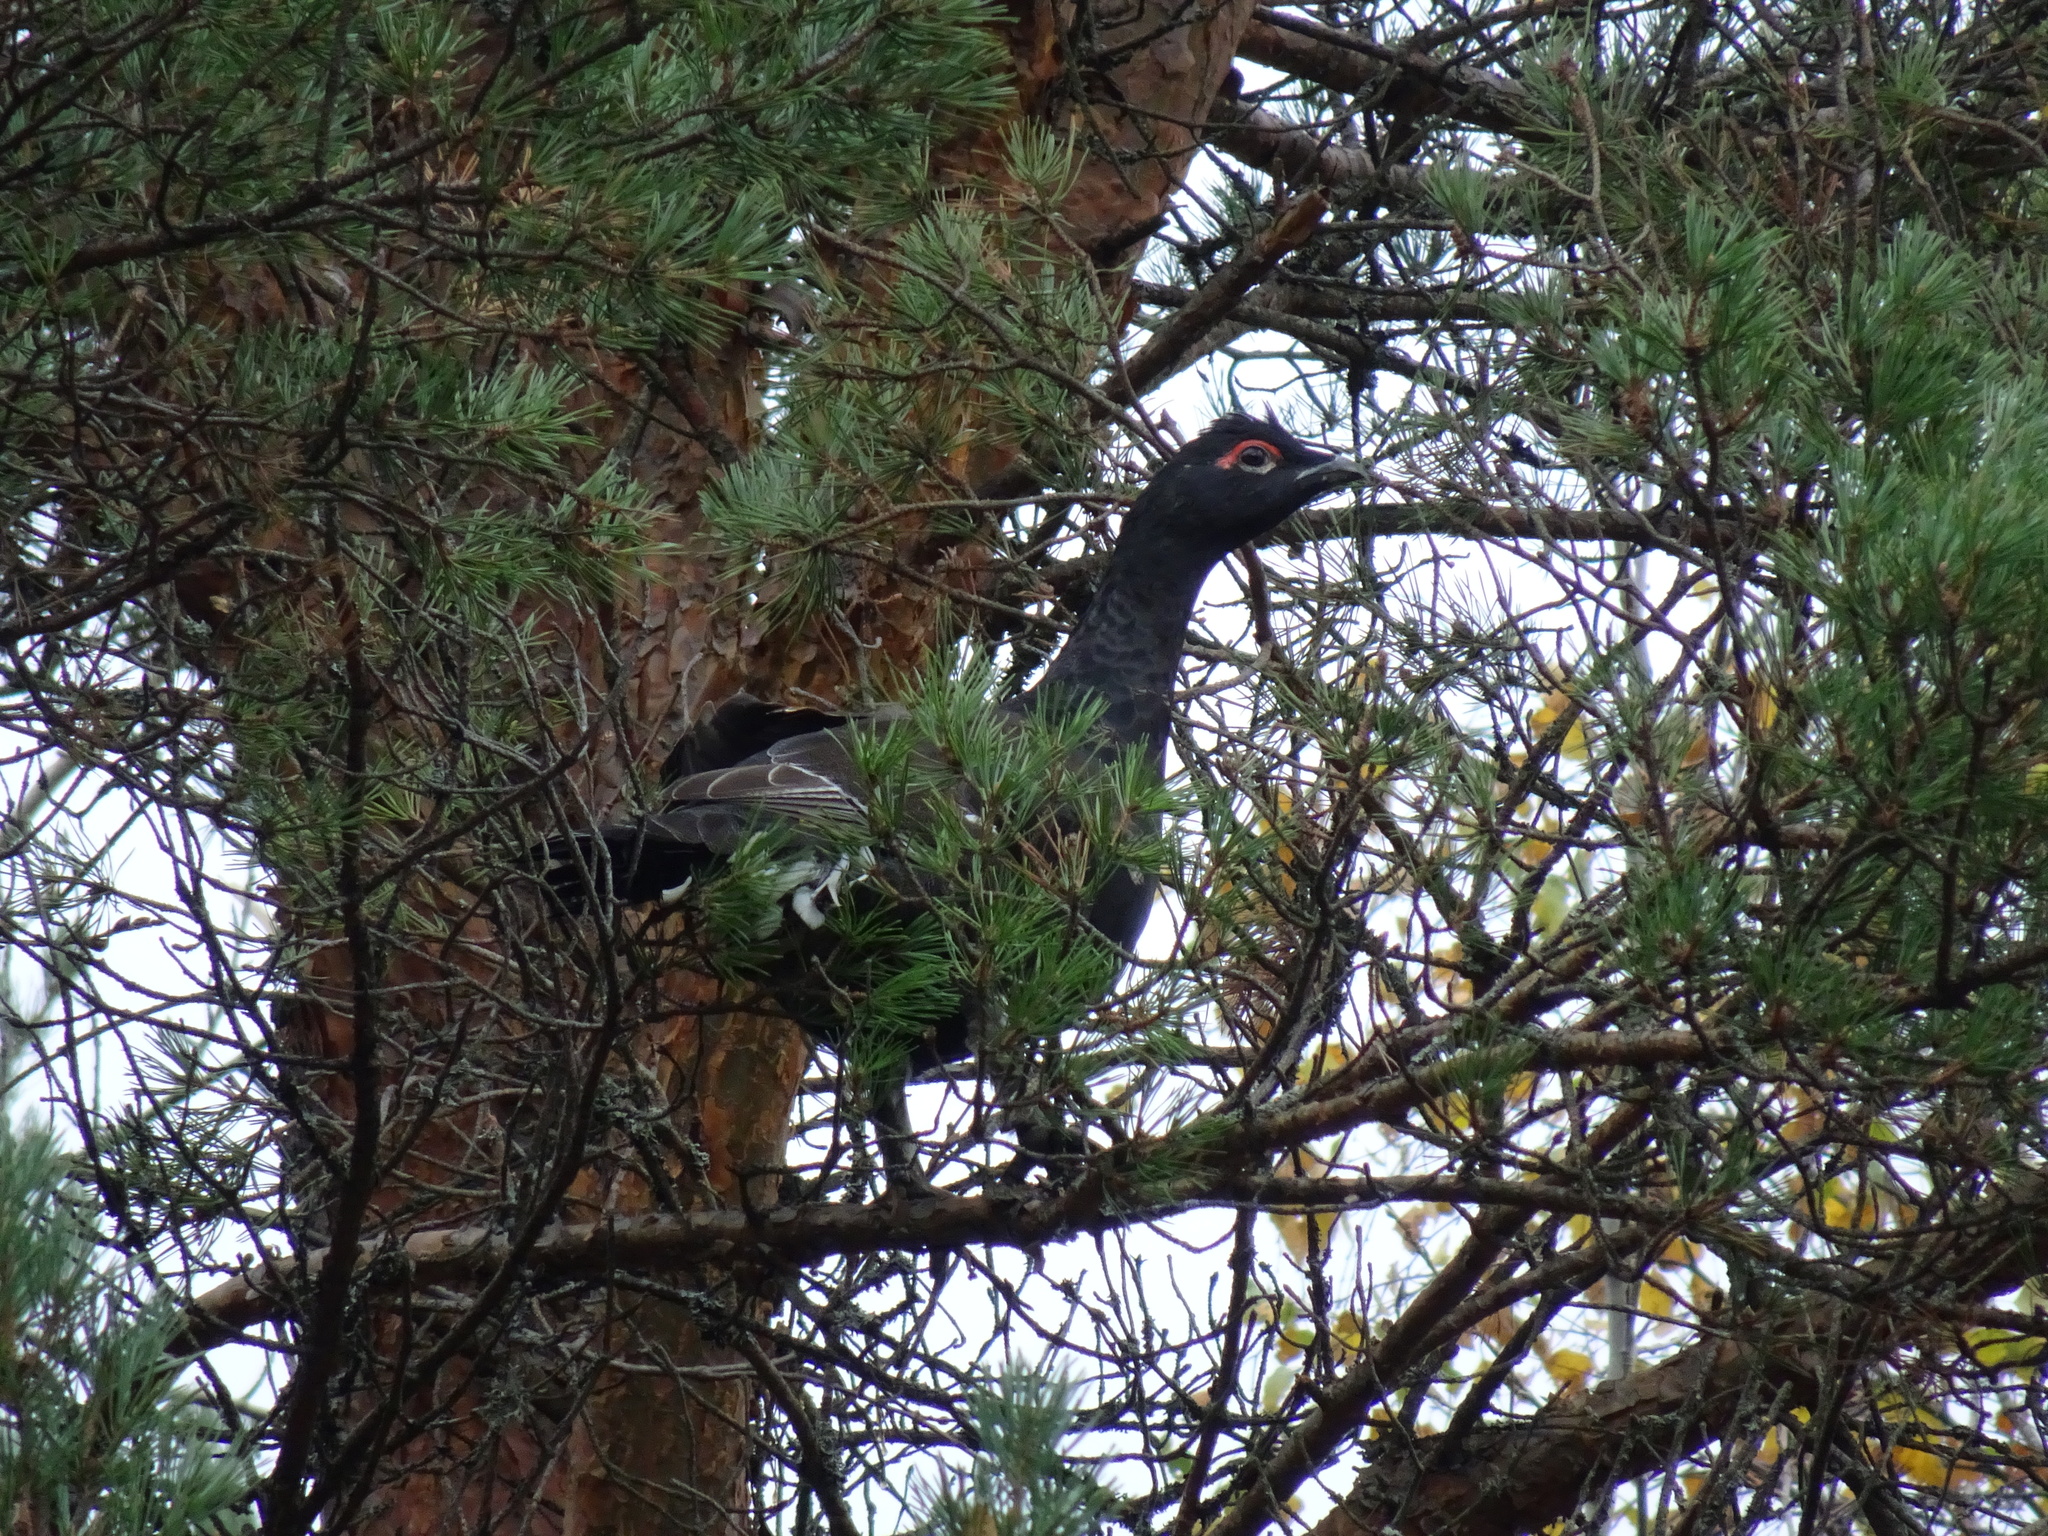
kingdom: Animalia
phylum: Chordata
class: Aves
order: Galliformes
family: Phasianidae
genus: Tetrao
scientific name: Tetrao urogallus
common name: Western capercaillie
